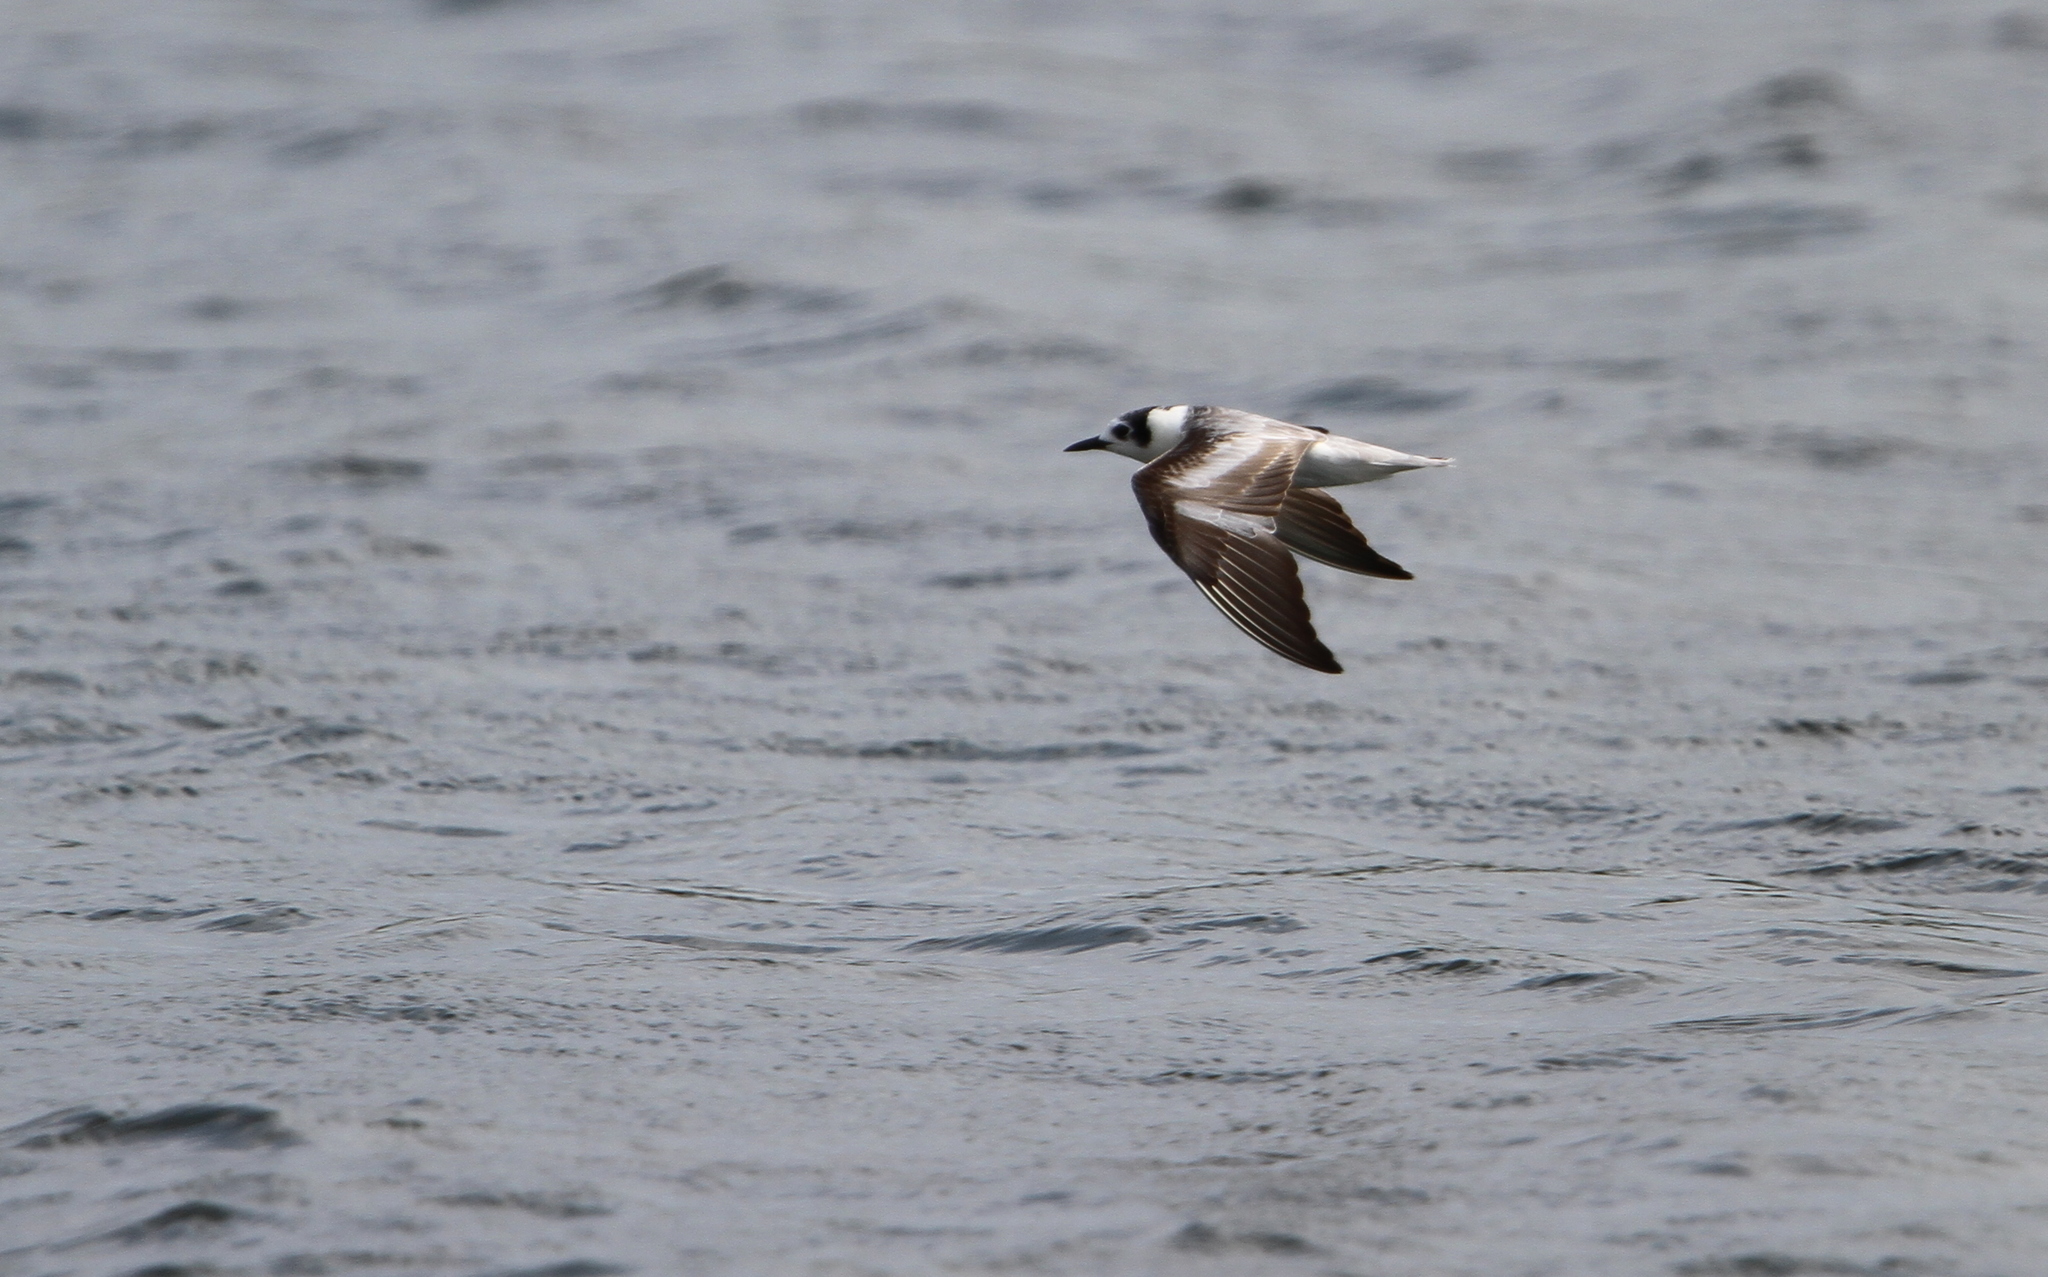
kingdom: Animalia
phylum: Chordata
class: Aves
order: Charadriiformes
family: Laridae
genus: Chlidonias
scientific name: Chlidonias leucopterus
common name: White-winged tern
